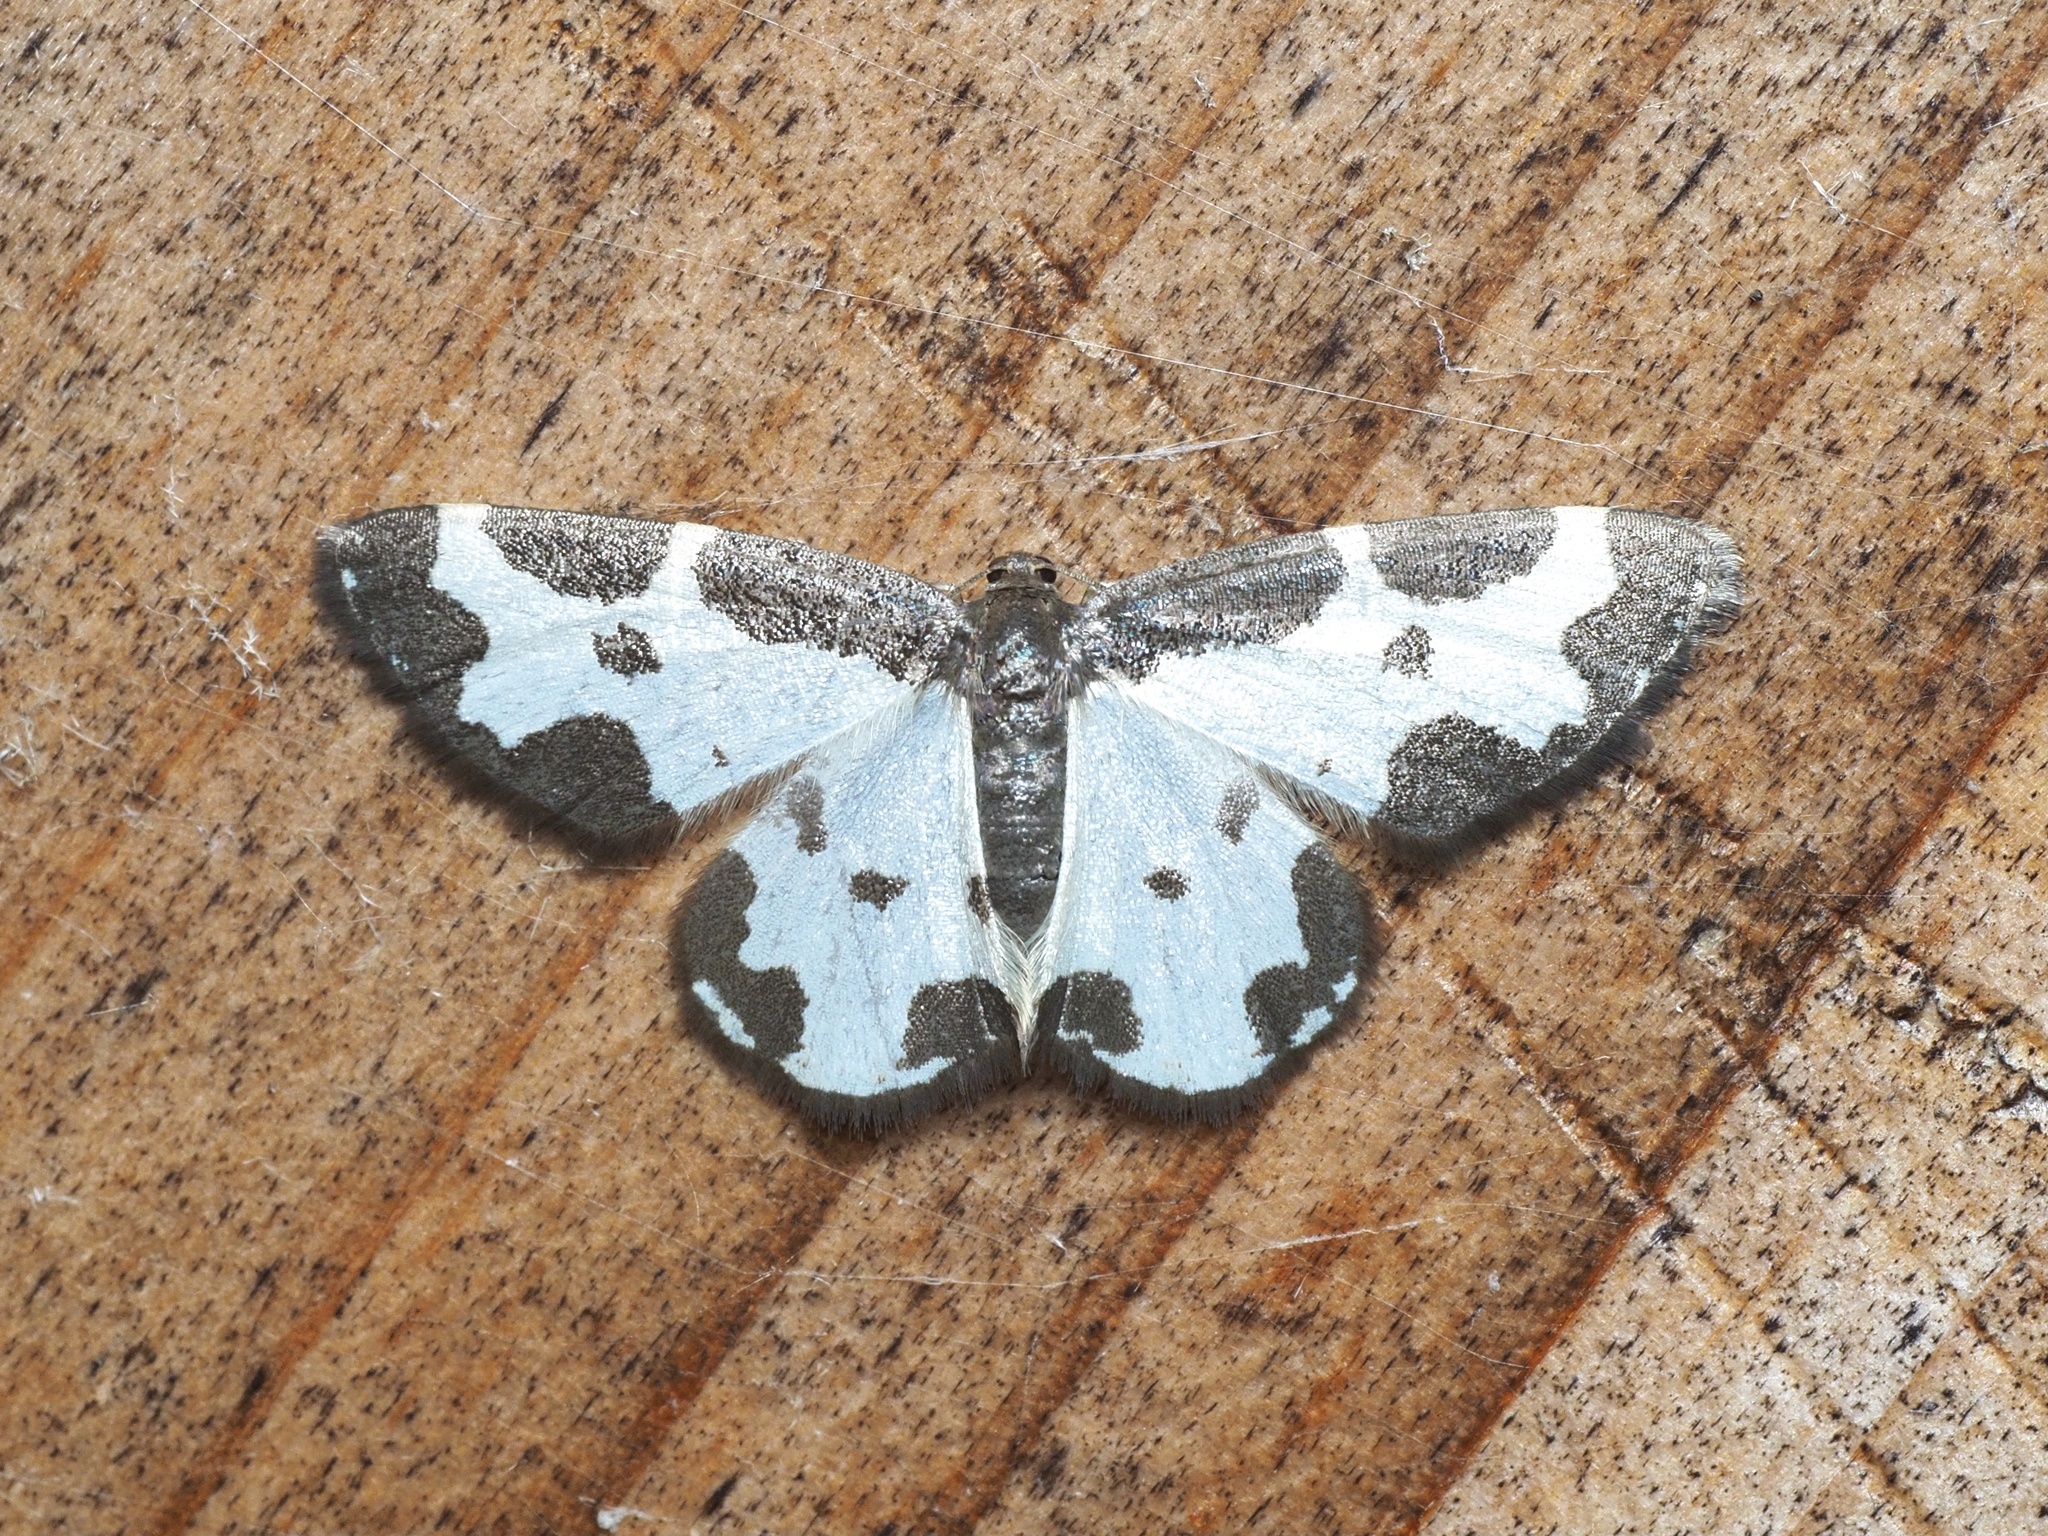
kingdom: Animalia
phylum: Arthropoda
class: Insecta
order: Lepidoptera
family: Geometridae
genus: Lomaspilis
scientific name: Lomaspilis marginata
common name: Clouded border
